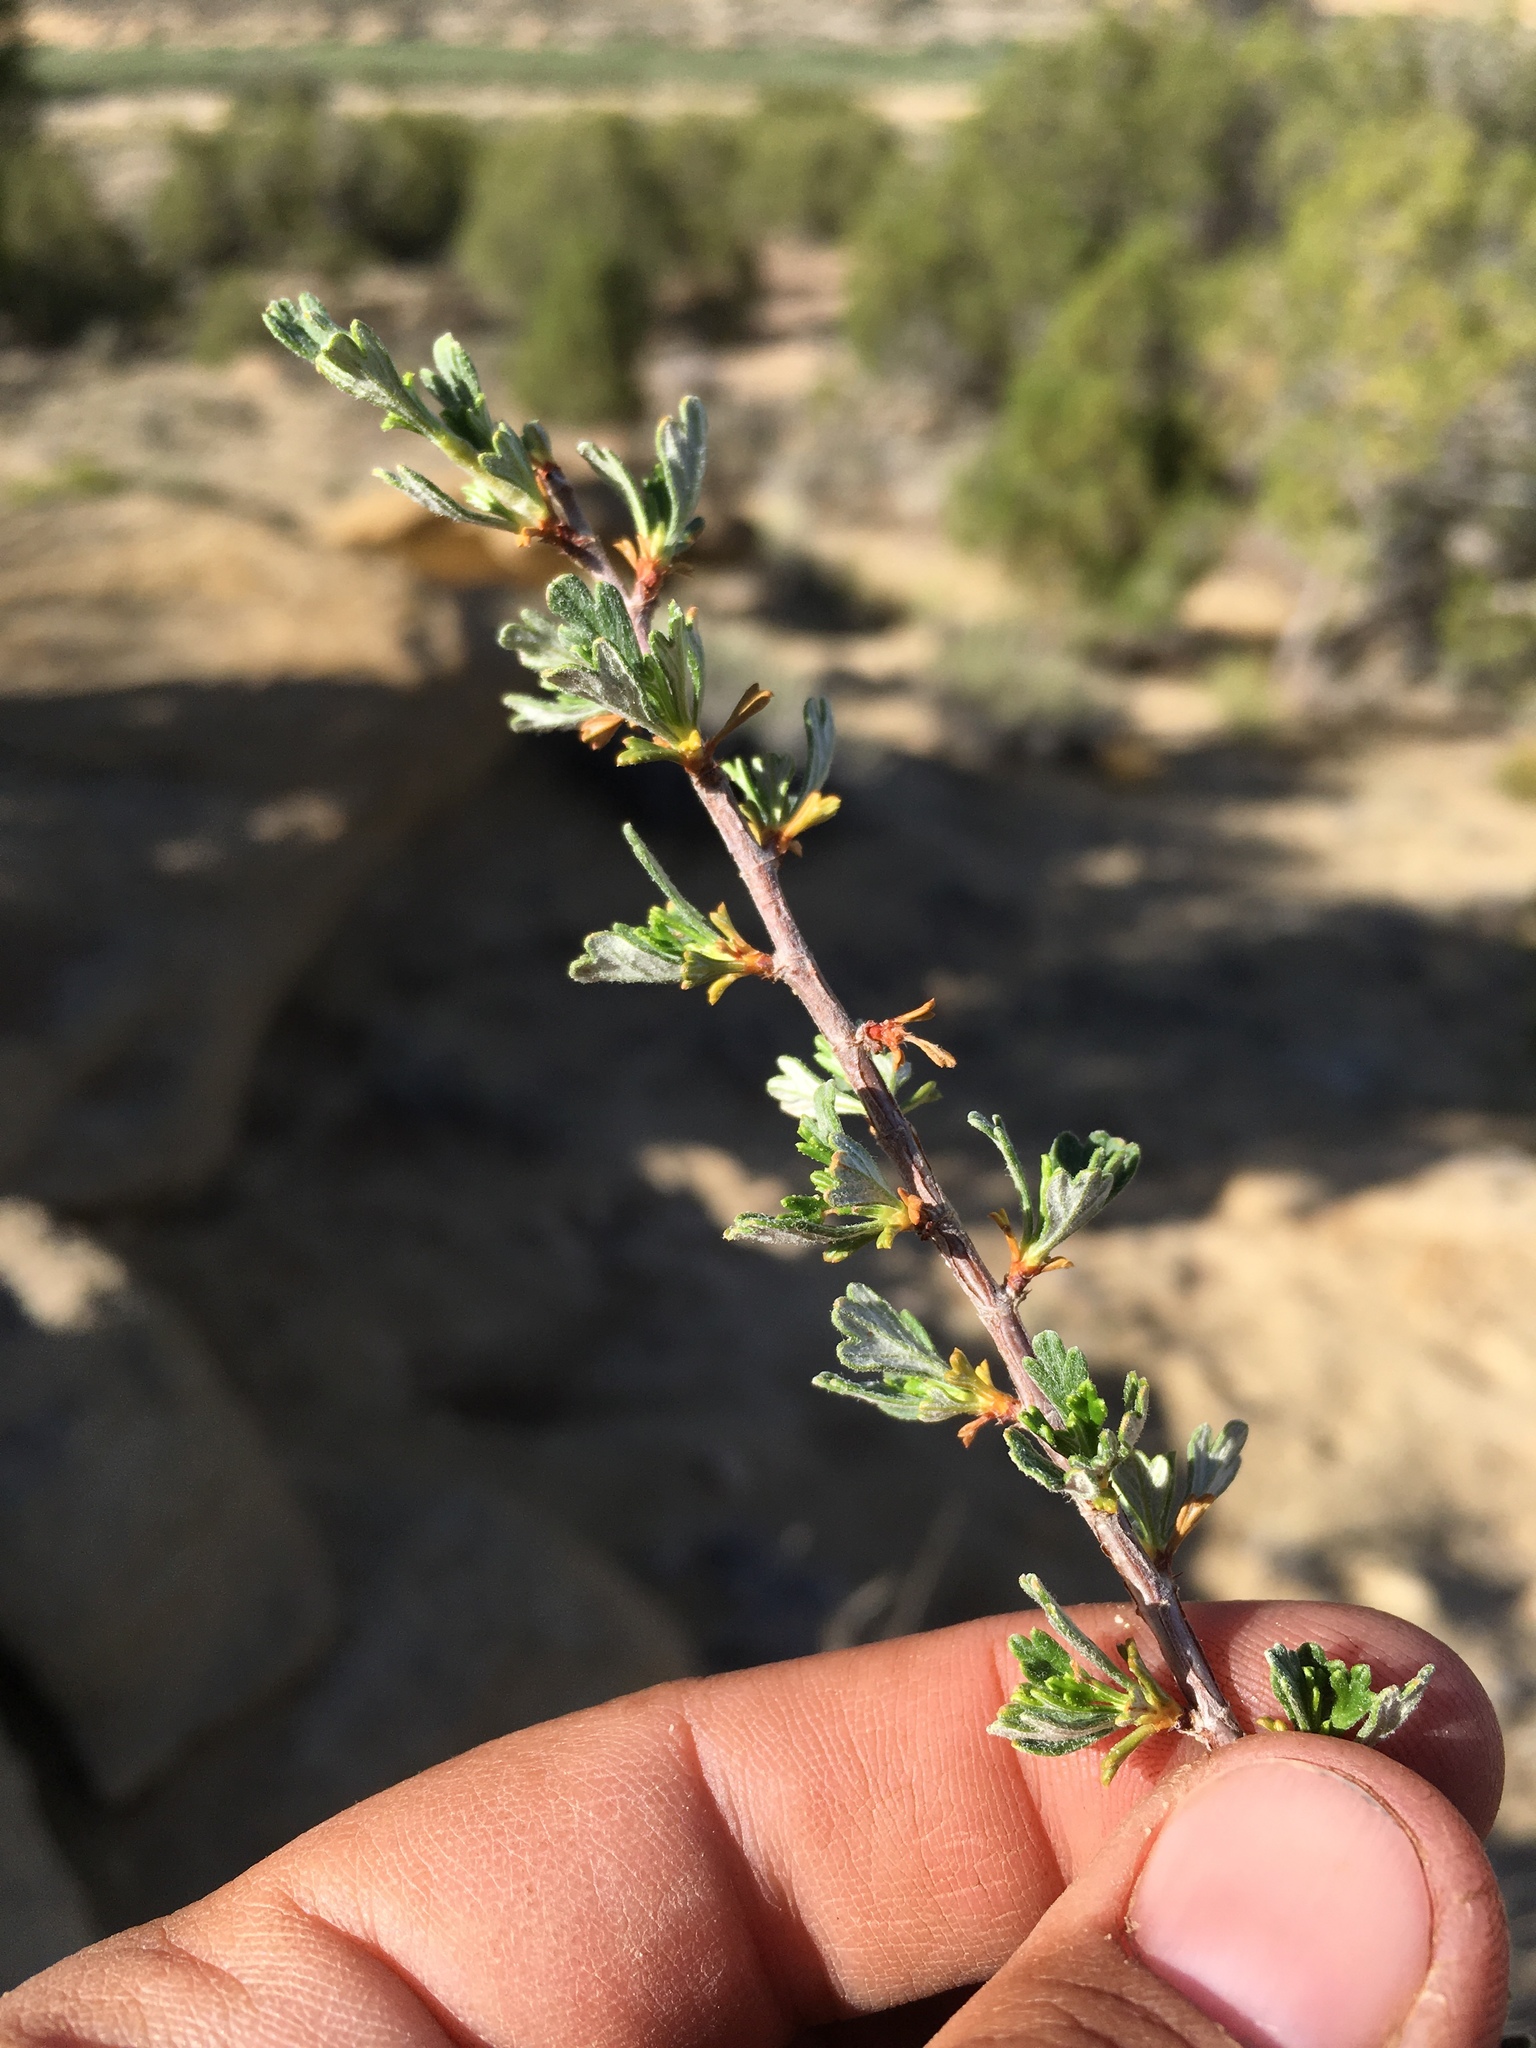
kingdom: Plantae
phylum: Tracheophyta
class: Magnoliopsida
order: Rosales
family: Rosaceae
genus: Purshia
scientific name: Purshia tridentata
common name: Antelope bitterbrush
